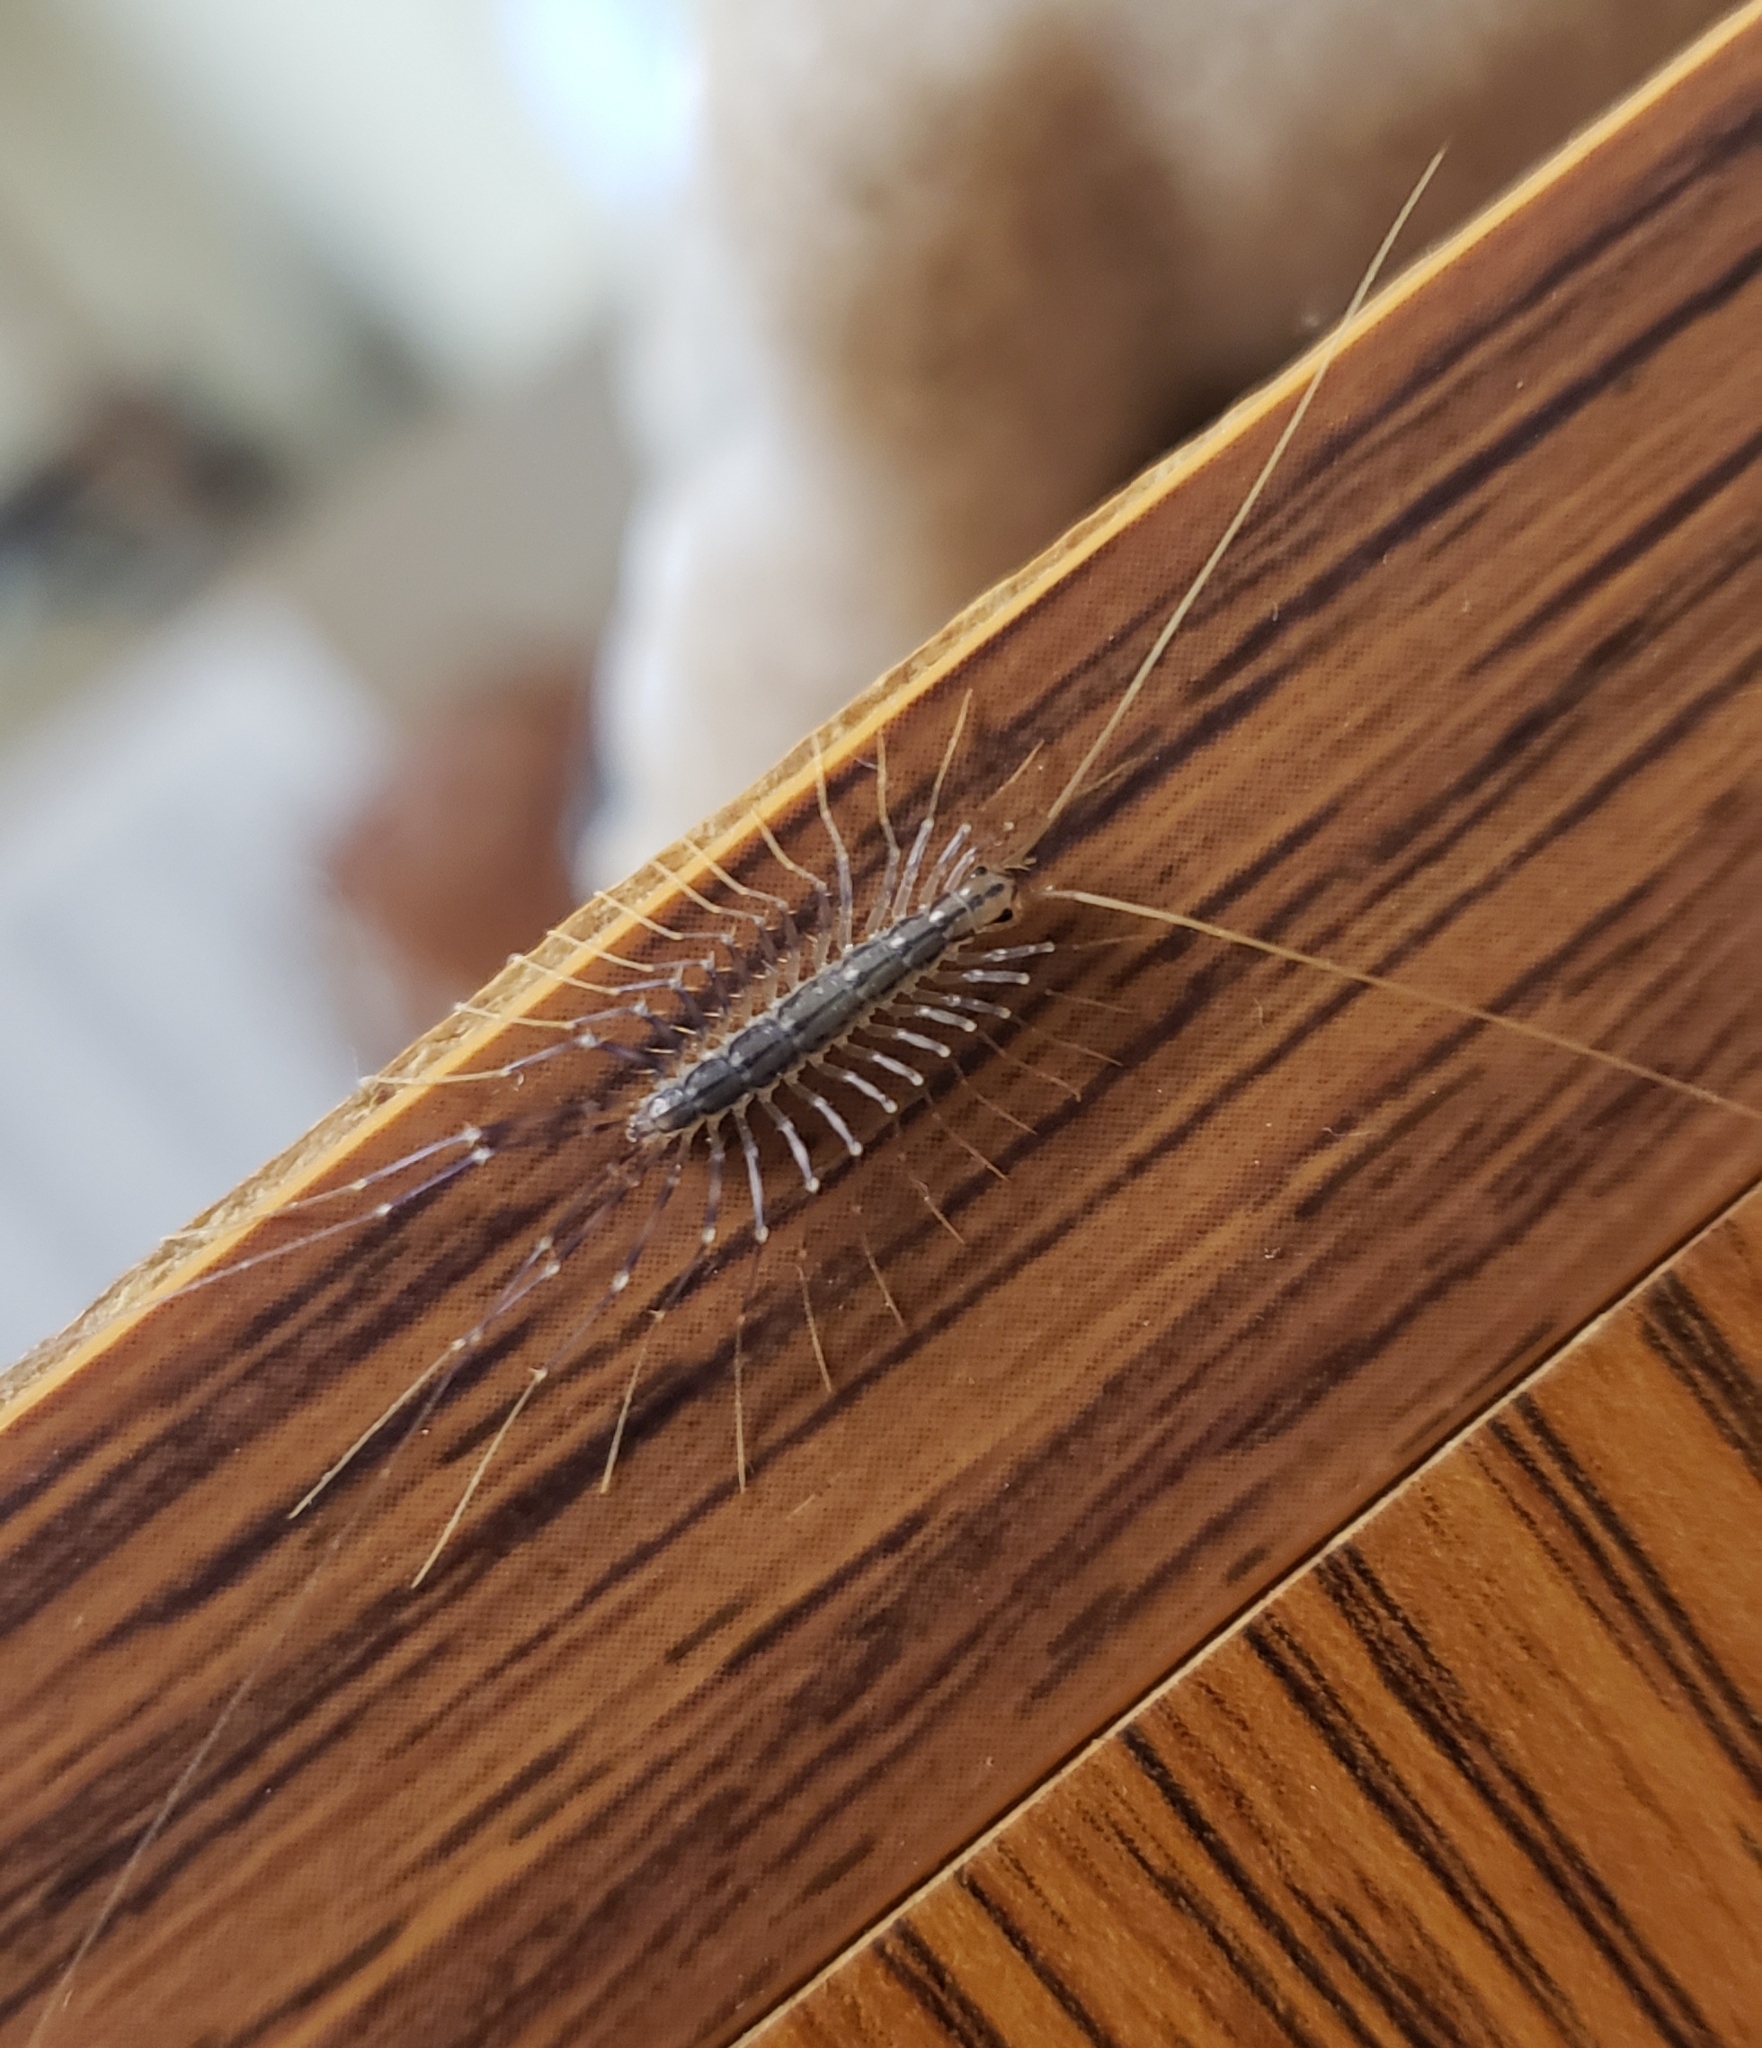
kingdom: Animalia
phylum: Arthropoda
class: Chilopoda
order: Scutigeromorpha
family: Scutigeridae
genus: Scutigera
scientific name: Scutigera coleoptrata
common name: House centipede
